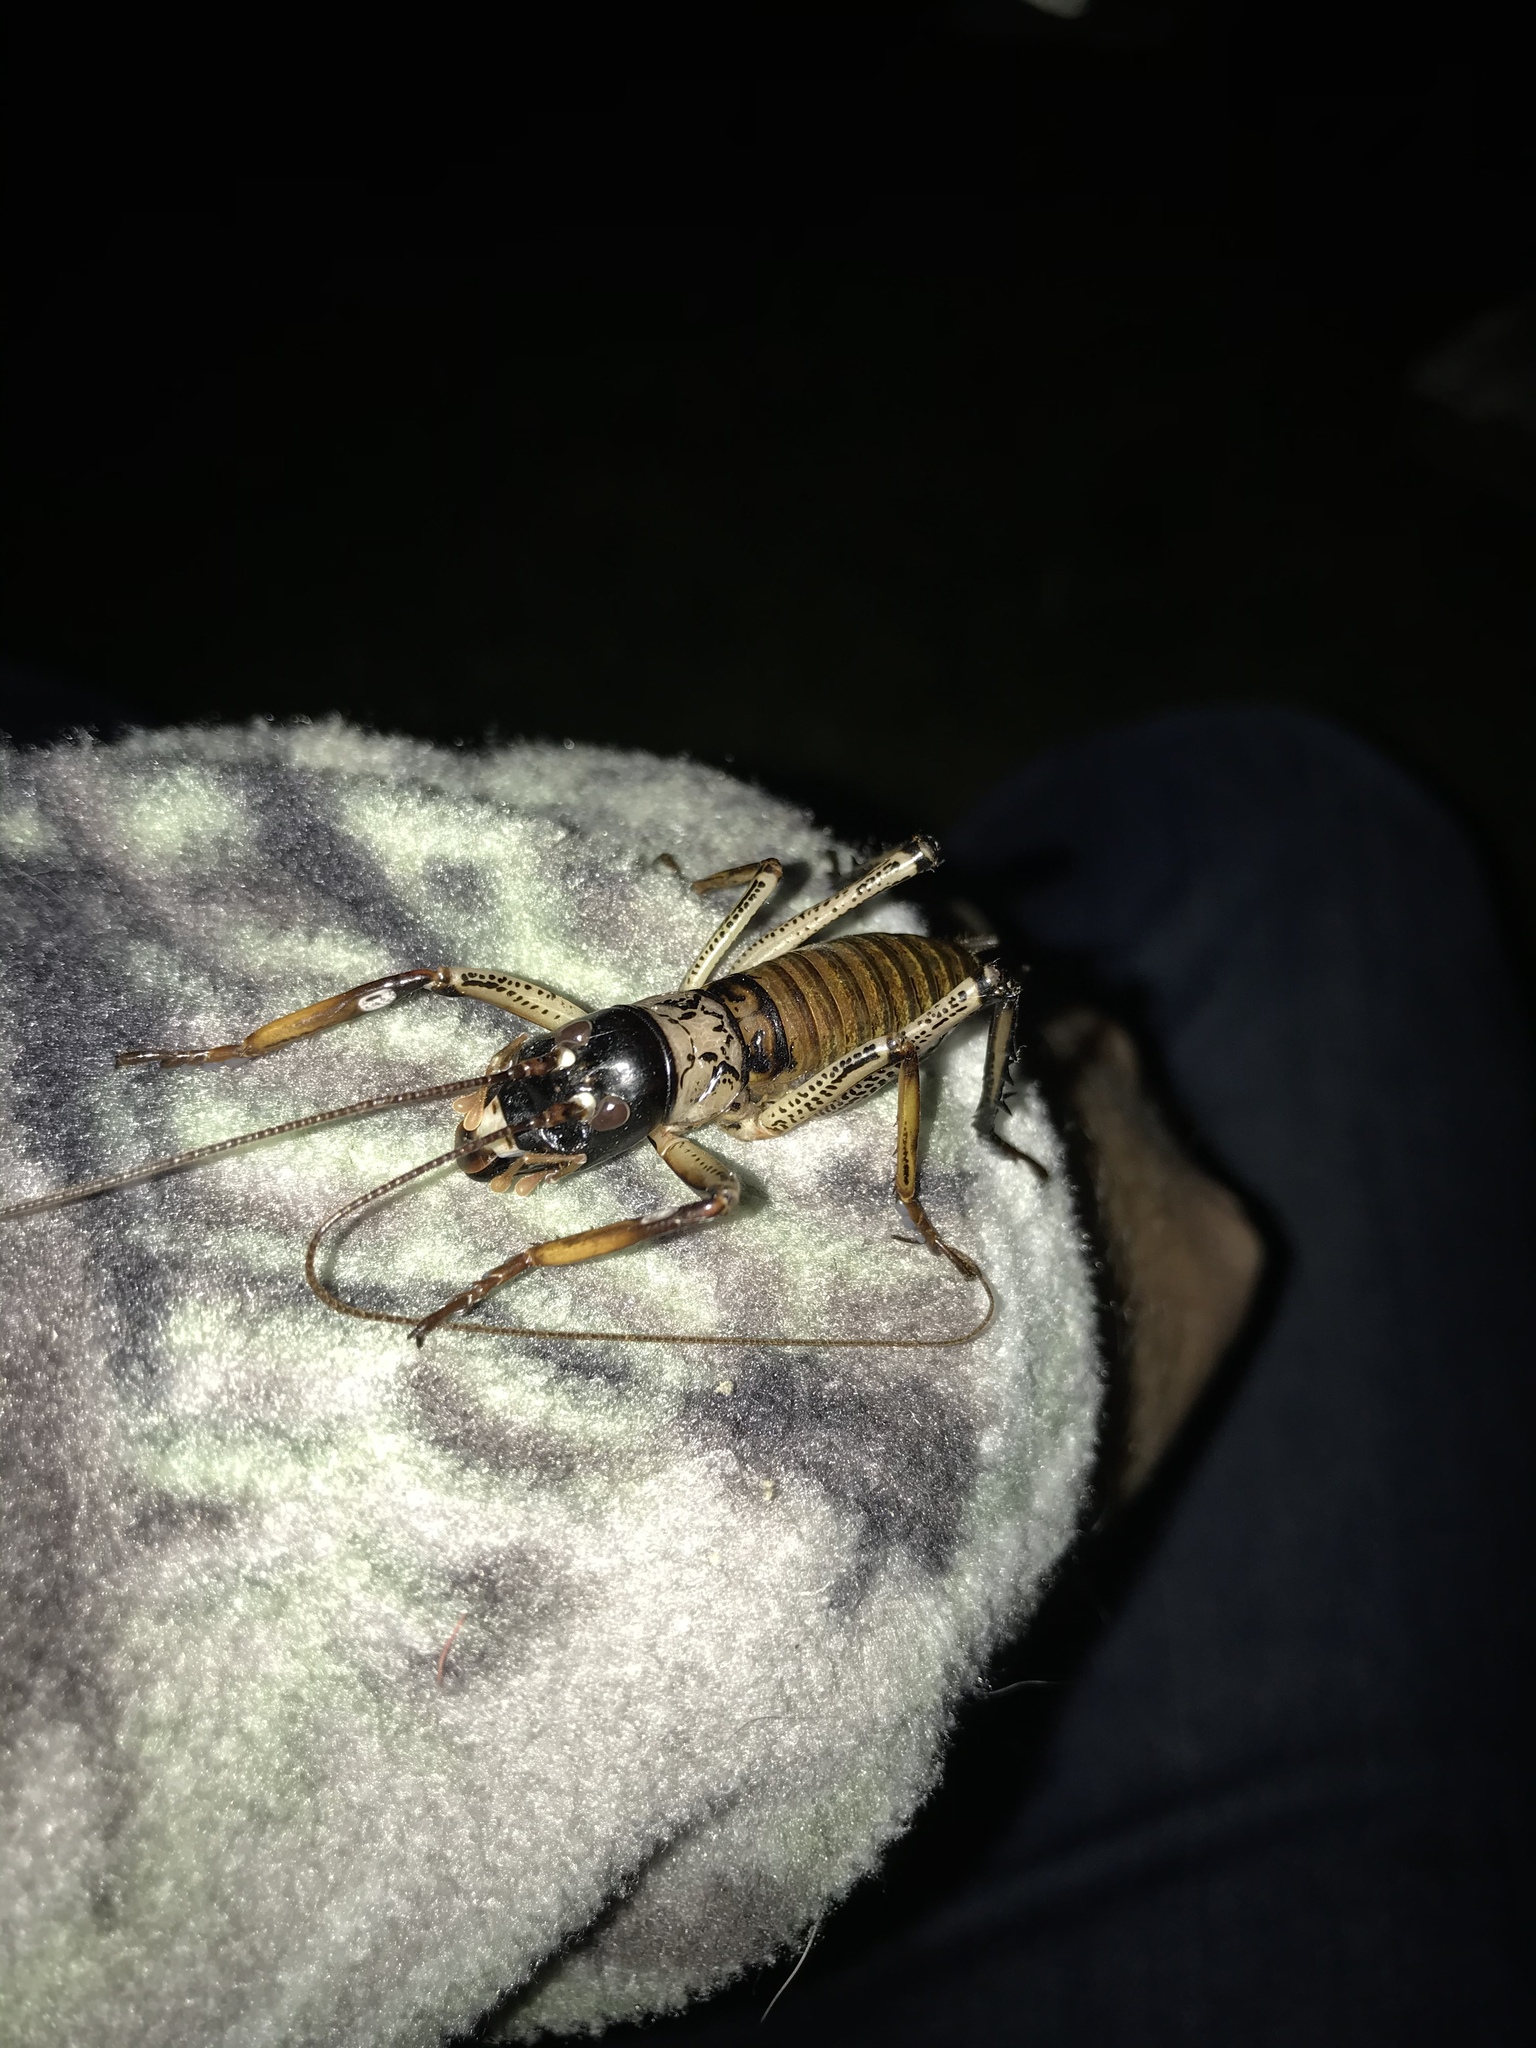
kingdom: Animalia
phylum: Arthropoda
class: Insecta
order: Orthoptera
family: Anostostomatidae
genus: Hemideina
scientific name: Hemideina thoracica
